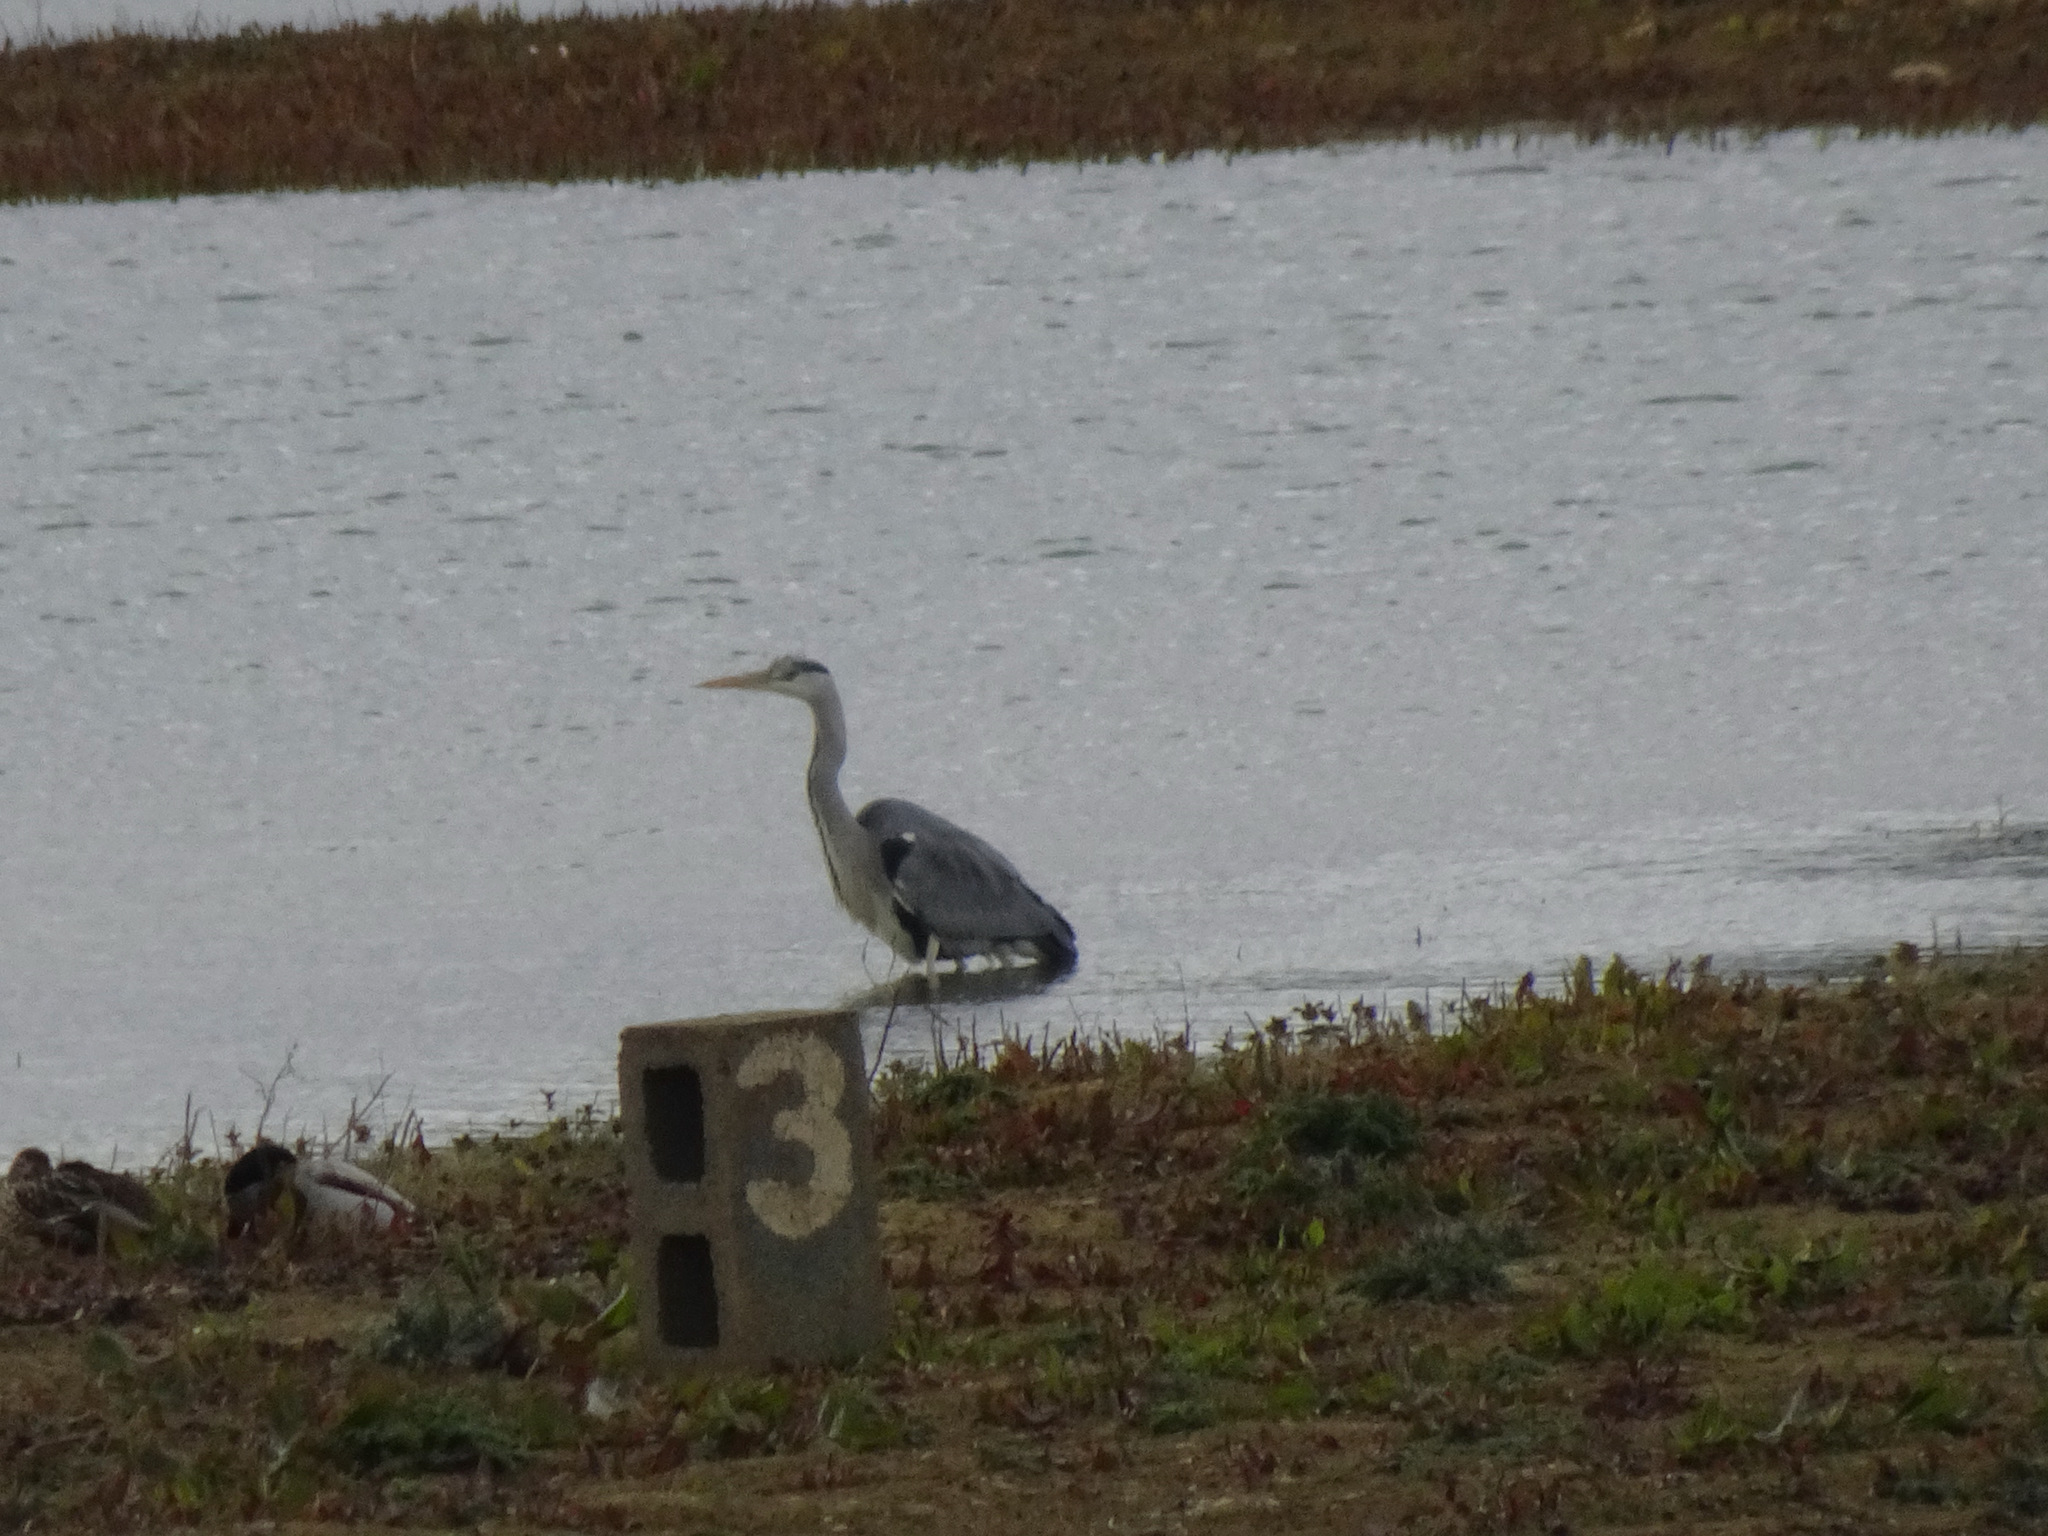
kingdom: Animalia
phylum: Chordata
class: Aves
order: Pelecaniformes
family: Ardeidae
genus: Ardea
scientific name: Ardea cinerea
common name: Grey heron
